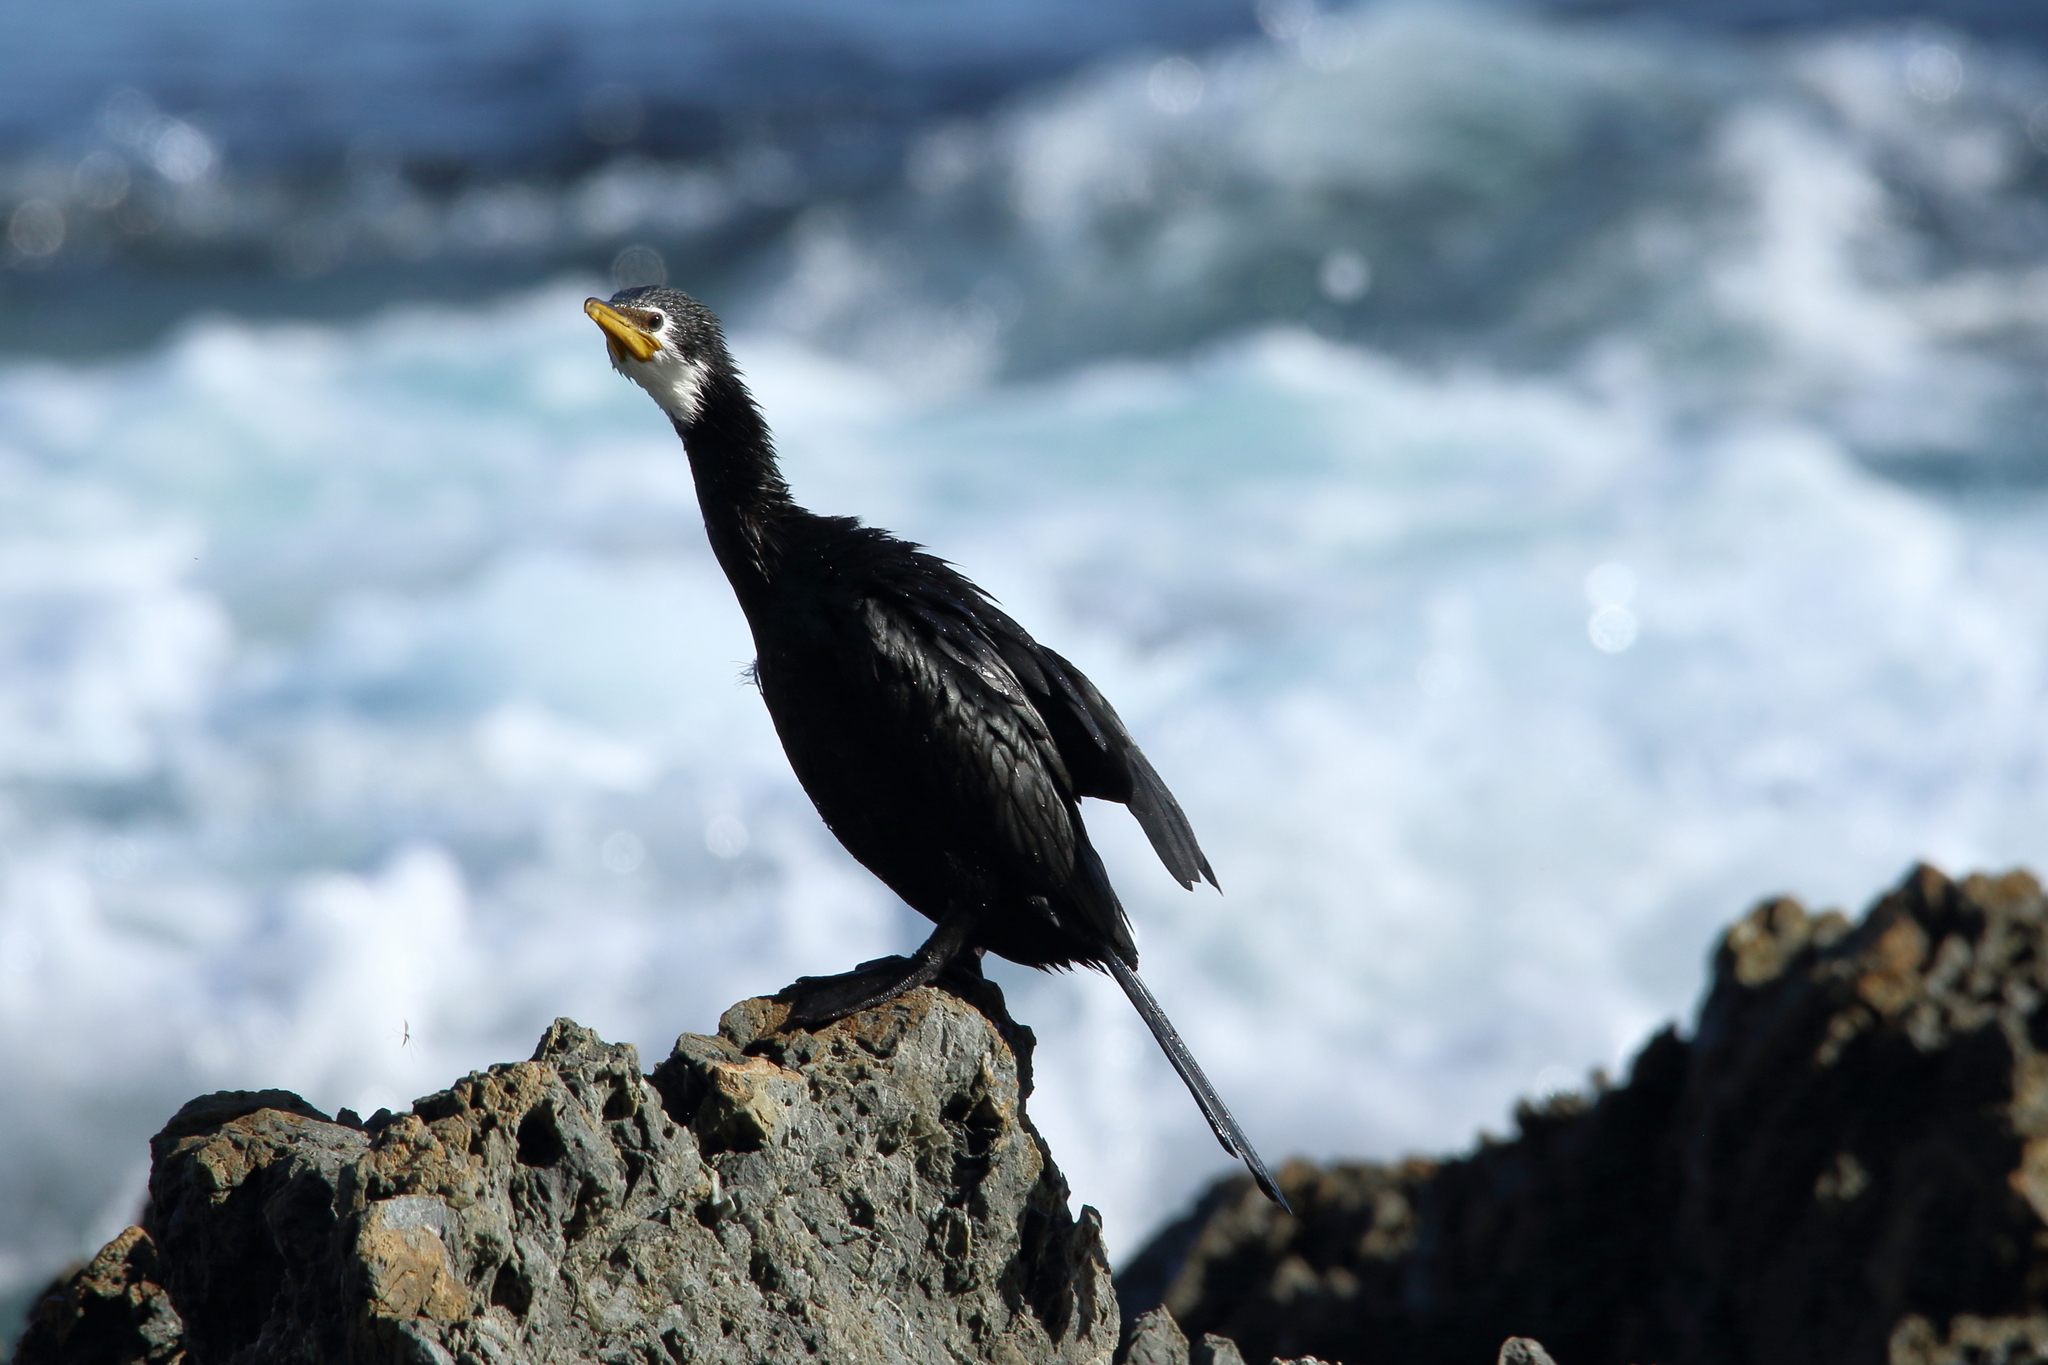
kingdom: Animalia
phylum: Chordata
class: Aves
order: Suliformes
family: Phalacrocoracidae
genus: Microcarbo
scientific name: Microcarbo melanoleucos
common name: Little pied cormorant
